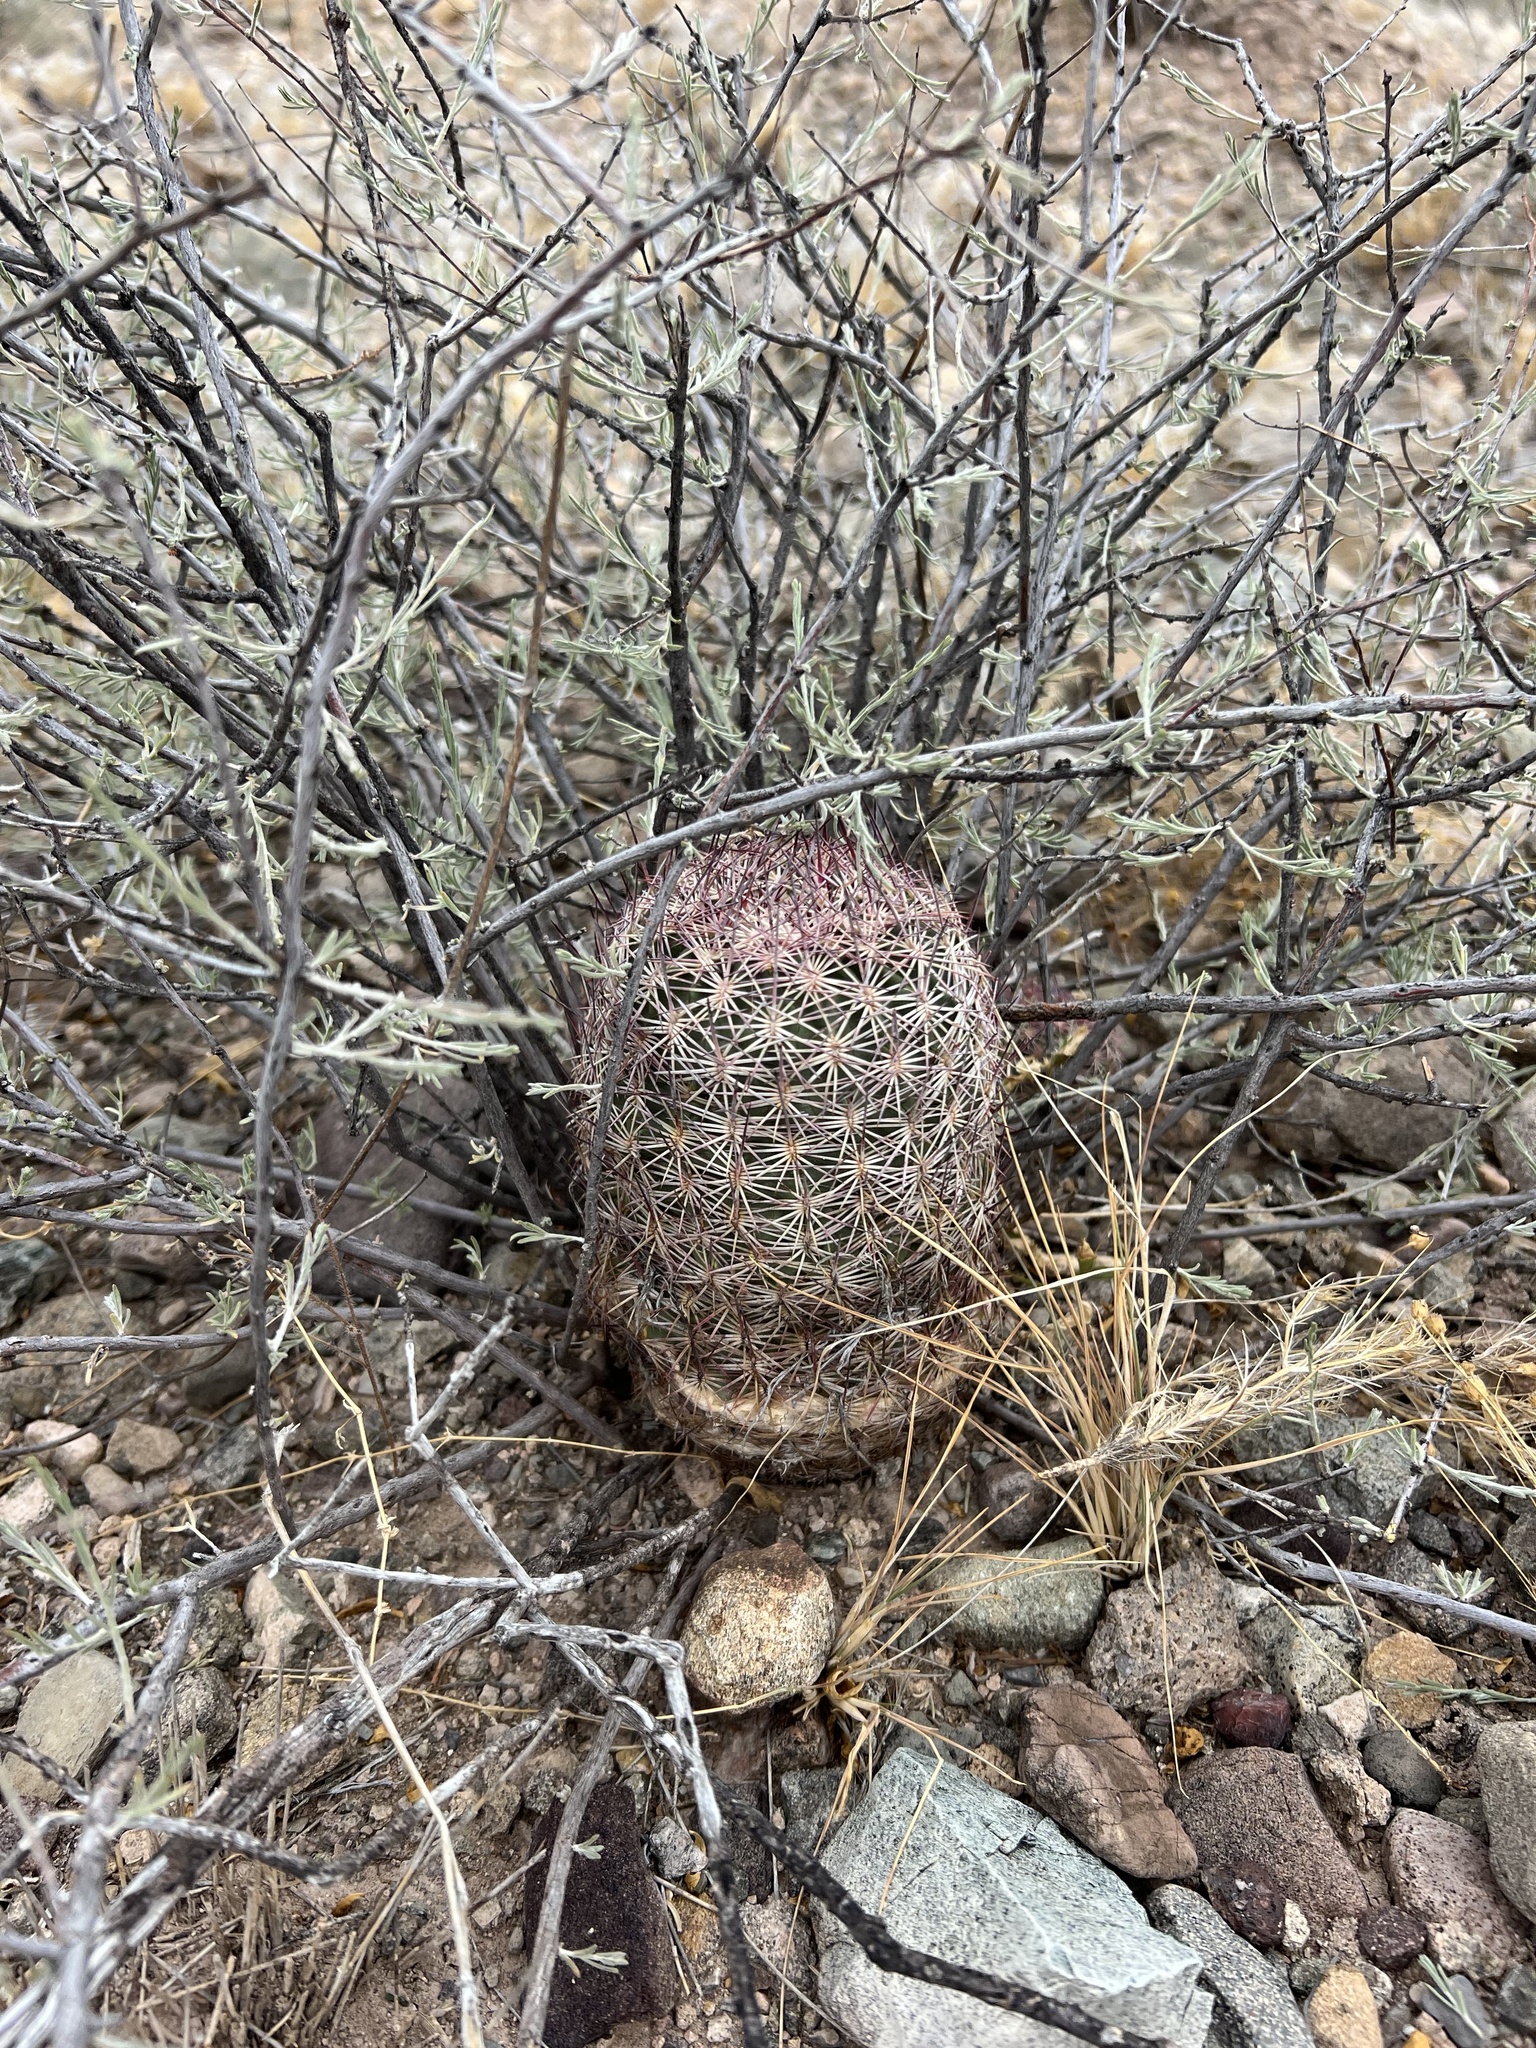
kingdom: Plantae
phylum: Tracheophyta
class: Magnoliopsida
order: Caryophyllales
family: Cactaceae
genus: Sclerocactus
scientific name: Sclerocactus johnsonii
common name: Eight-spine fishhook cactus
